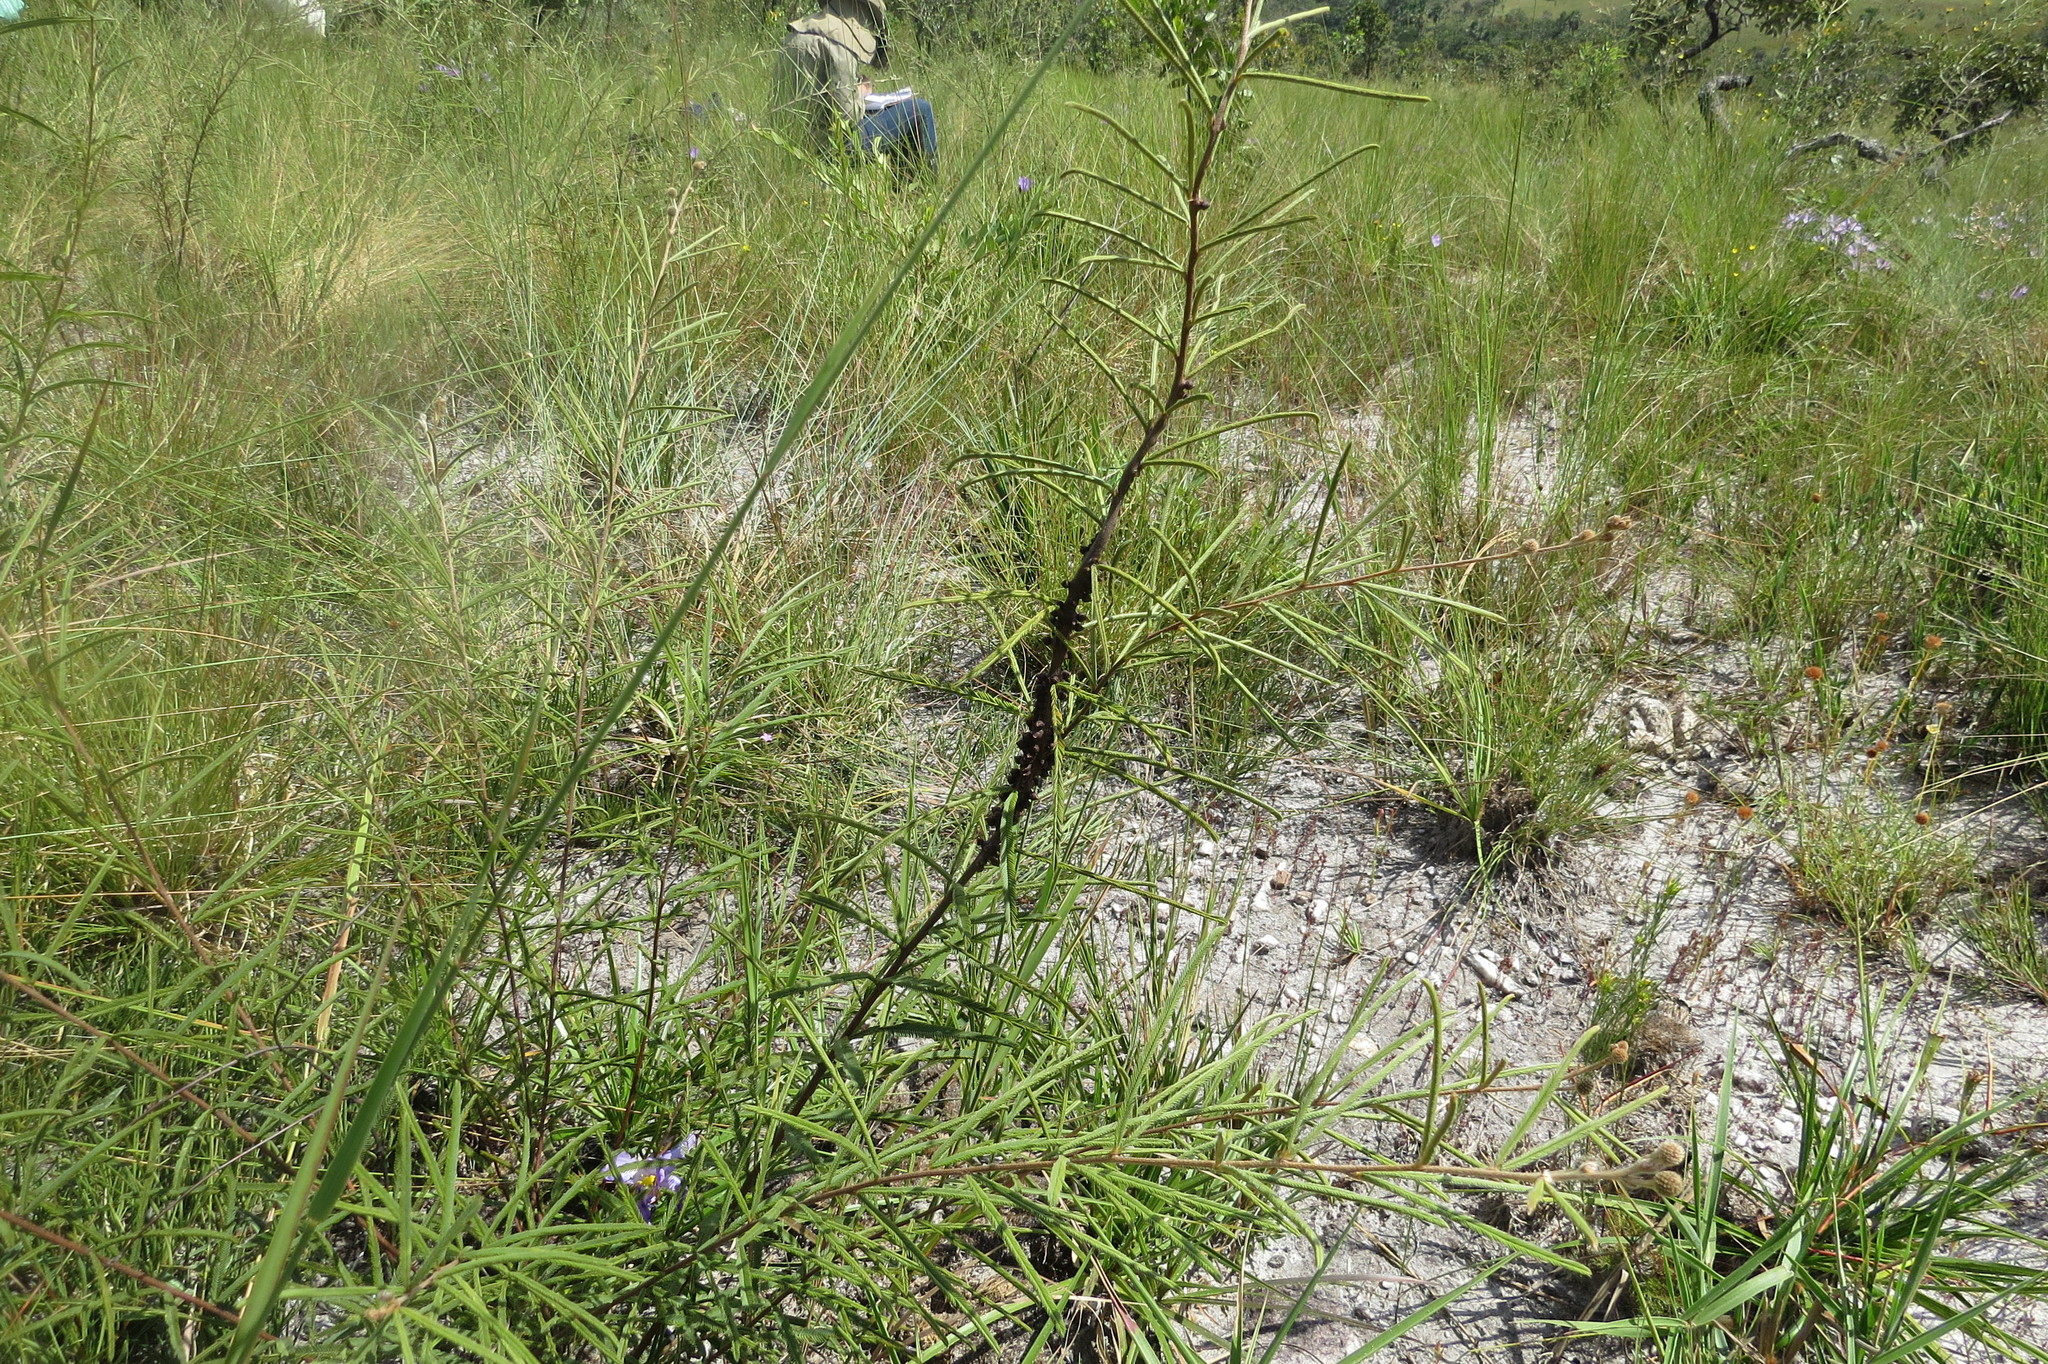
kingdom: Plantae
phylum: Tracheophyta
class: Magnoliopsida
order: Cucurbitales
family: Apodanthaceae
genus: Pilostyles
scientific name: Pilostyles blanchetii
